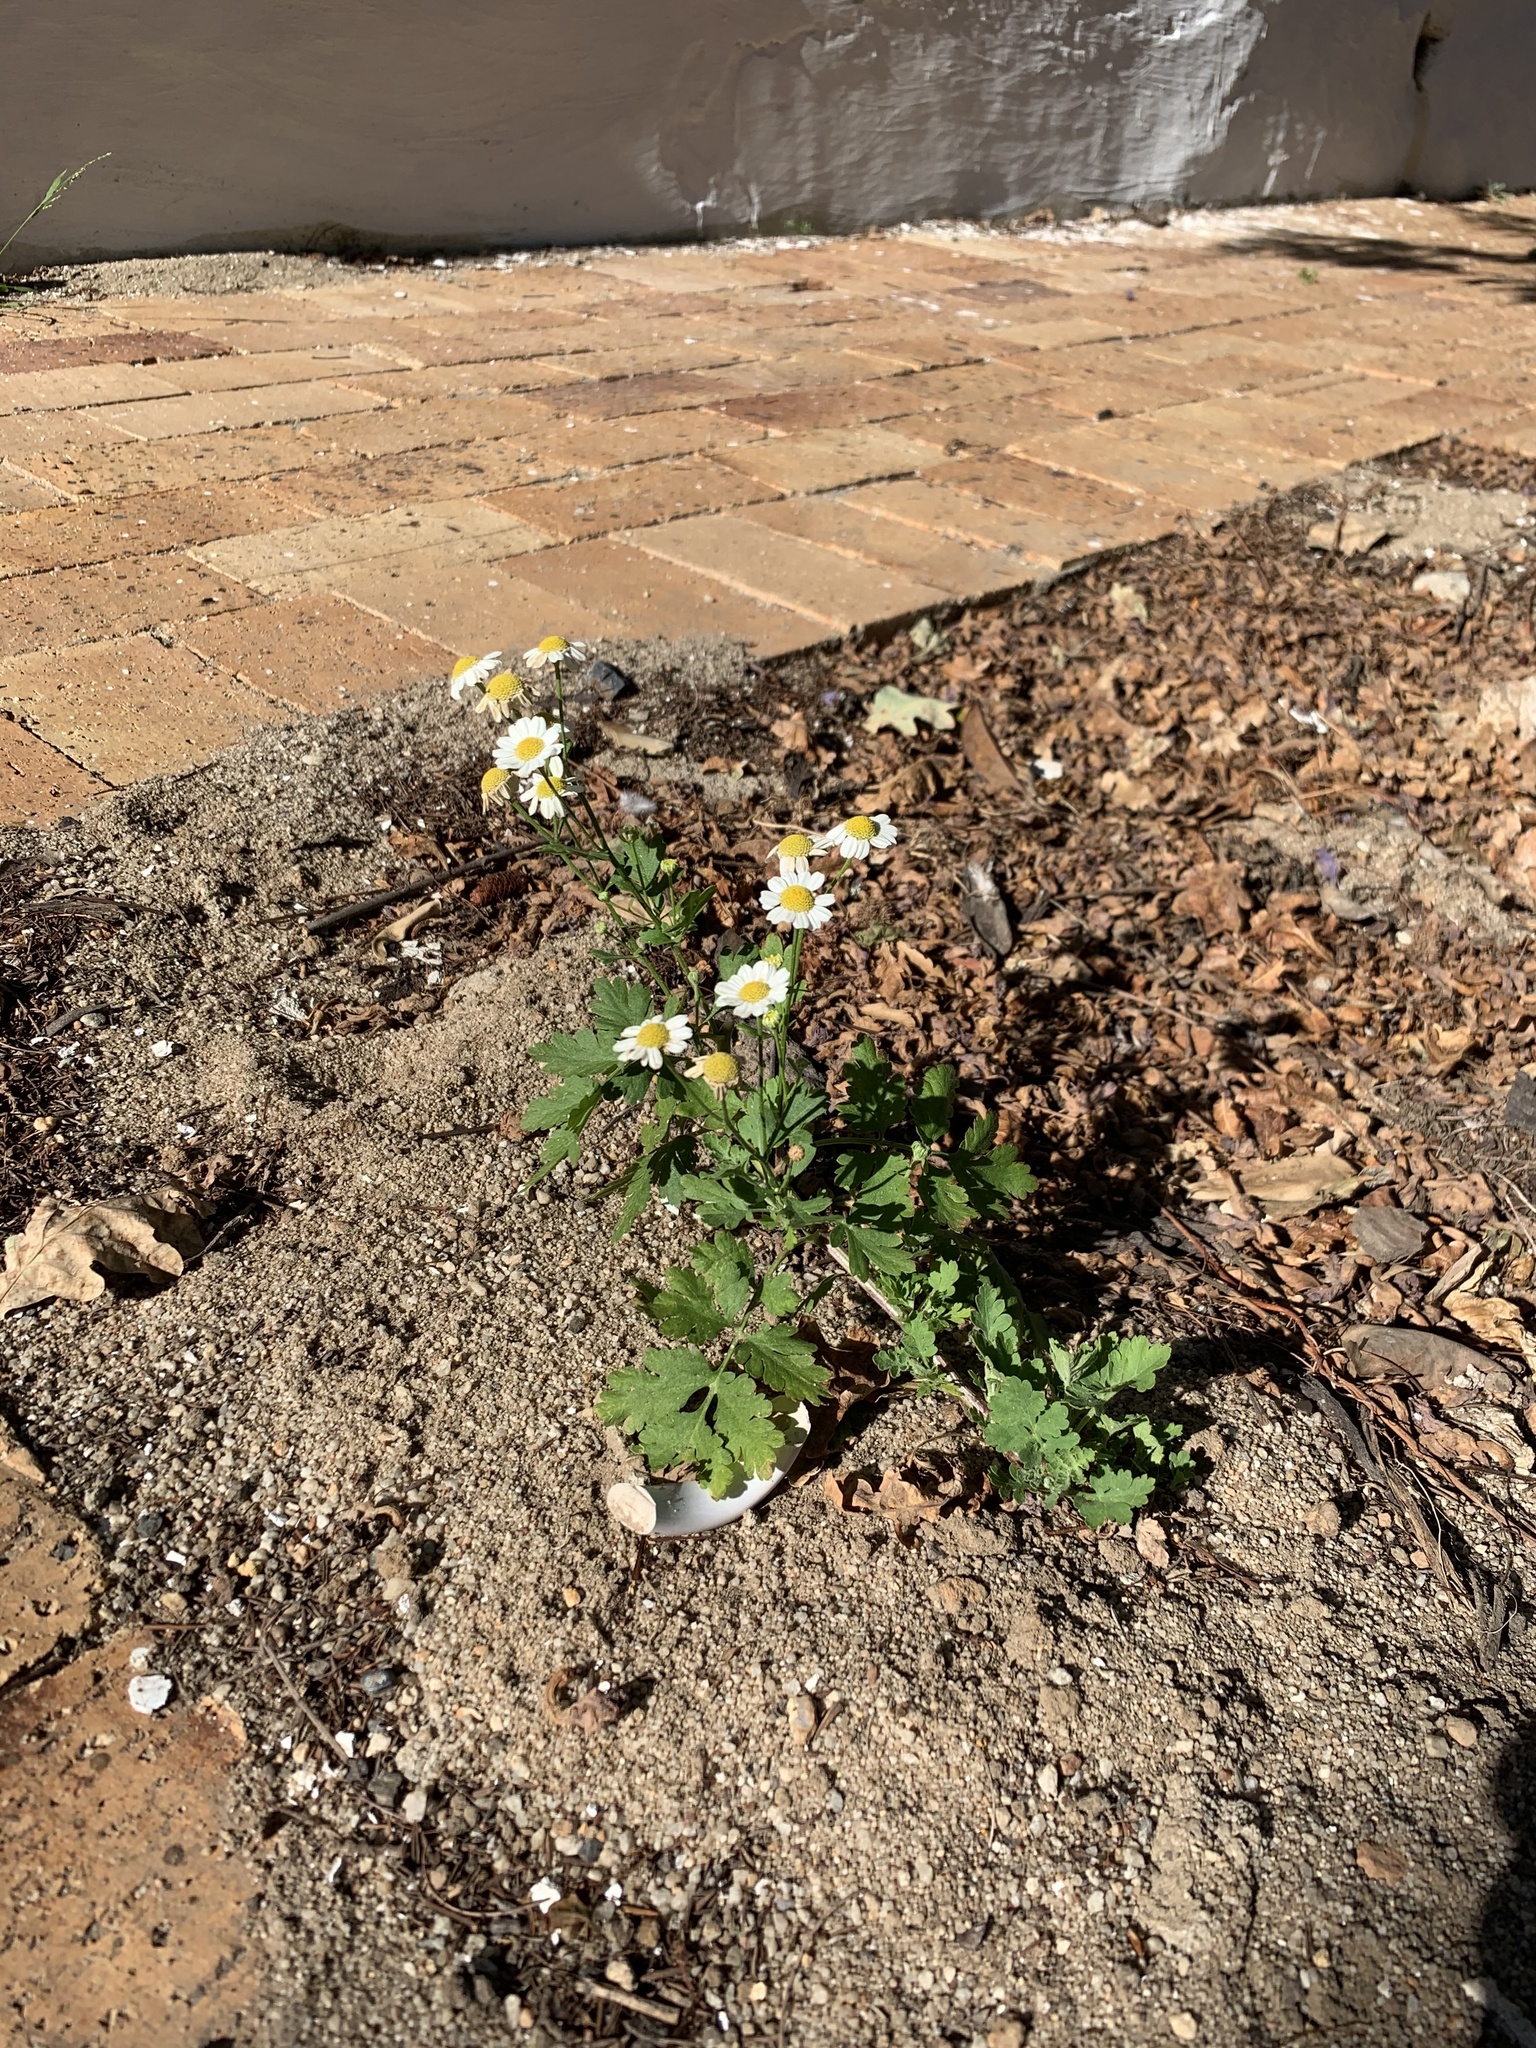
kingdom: Plantae
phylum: Tracheophyta
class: Magnoliopsida
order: Asterales
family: Asteraceae
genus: Tanacetum
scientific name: Tanacetum parthenium
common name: Feverfew
